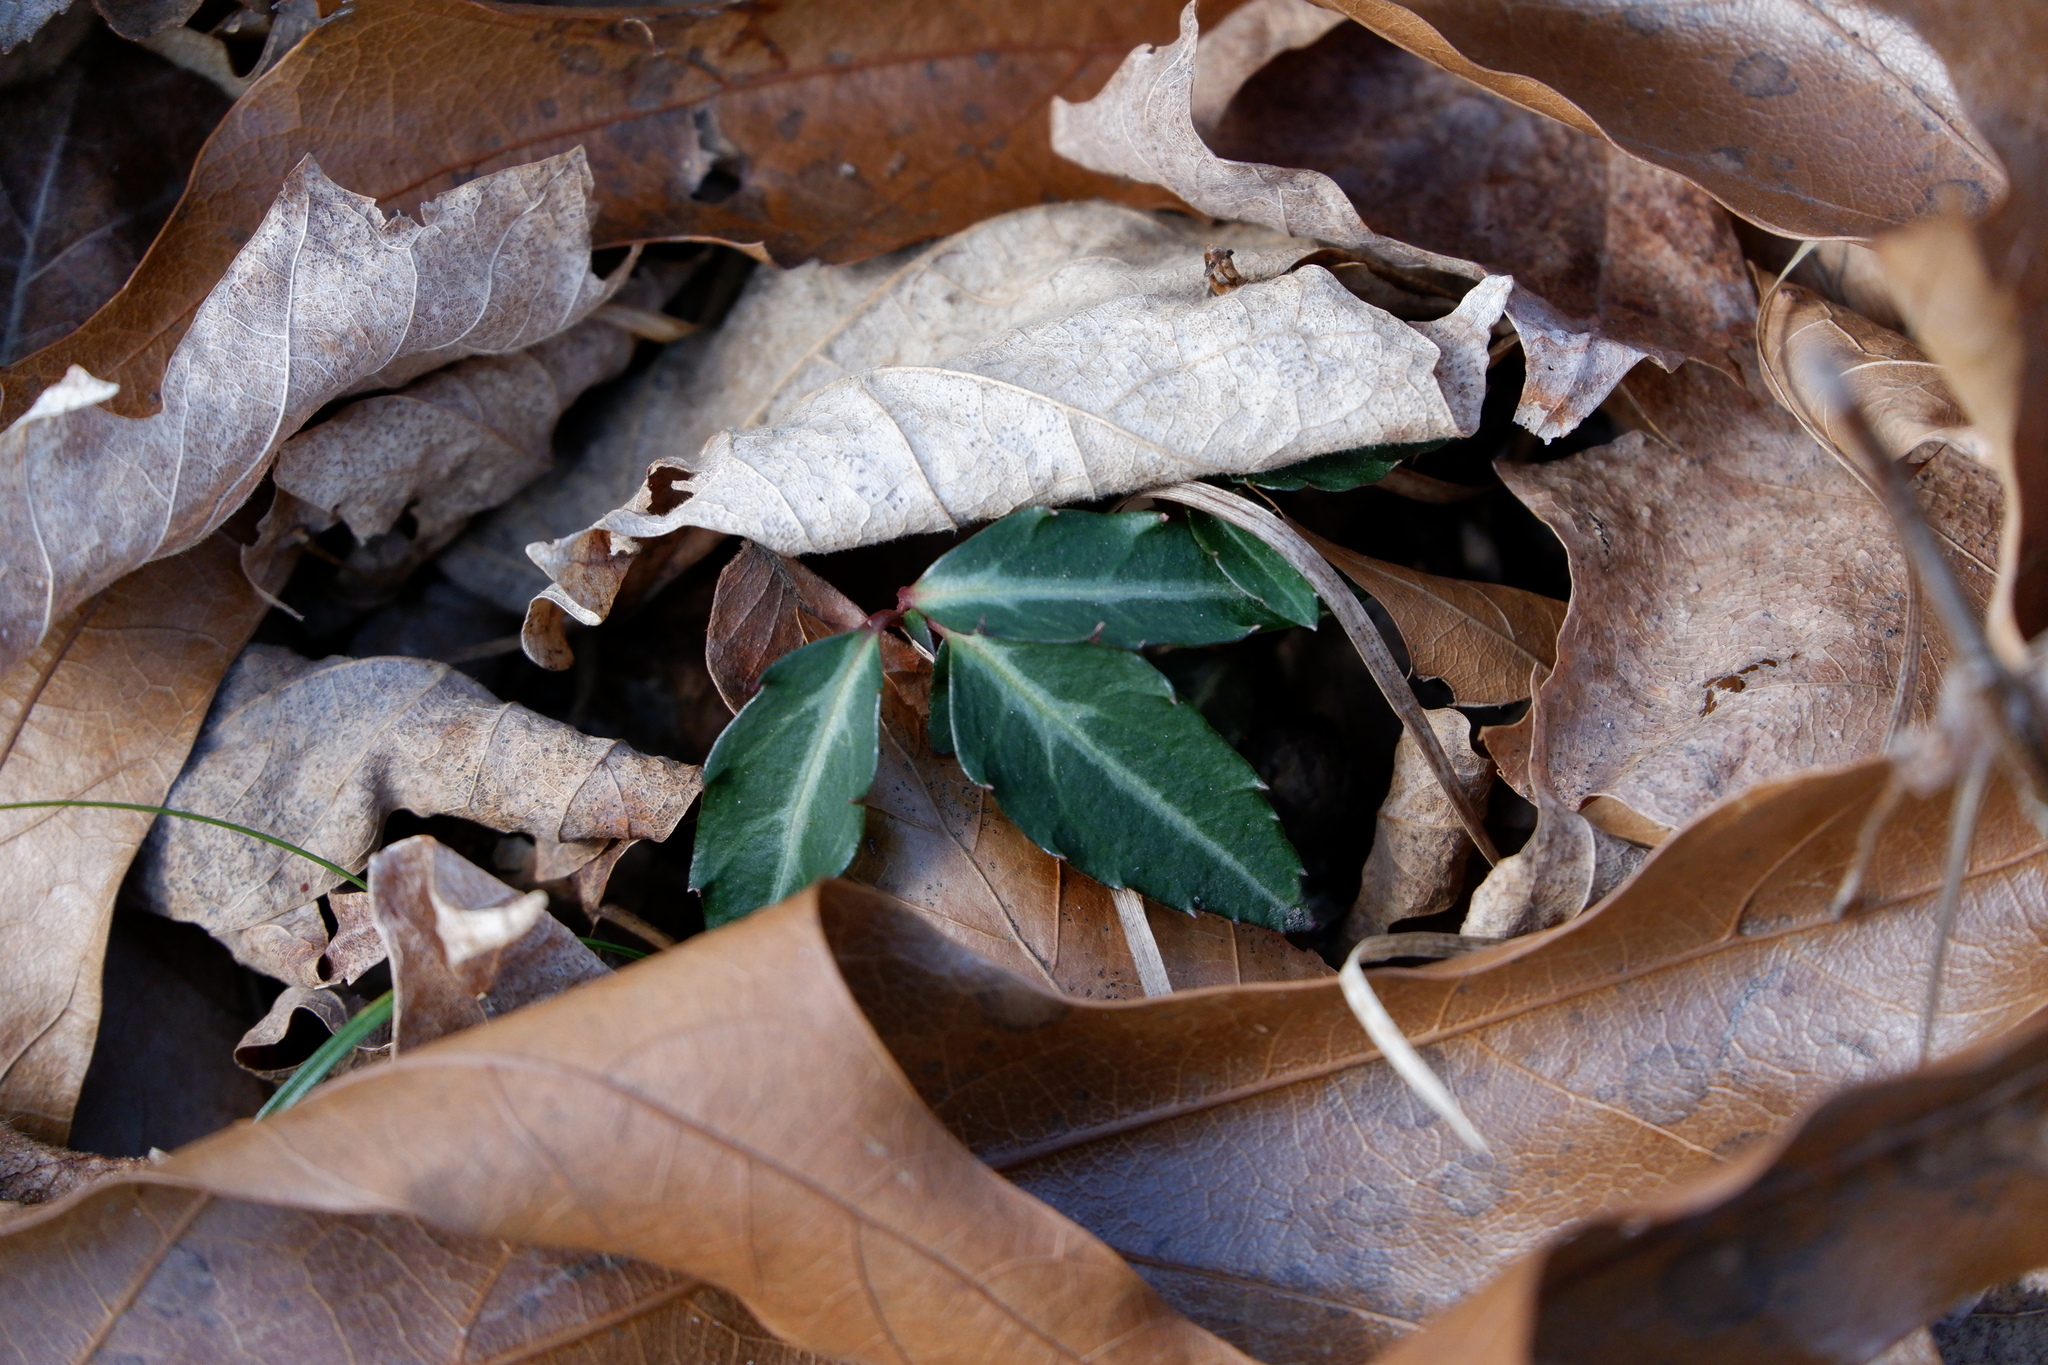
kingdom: Plantae
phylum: Tracheophyta
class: Magnoliopsida
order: Ericales
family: Ericaceae
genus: Chimaphila
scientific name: Chimaphila maculata
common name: Spotted pipsissewa
